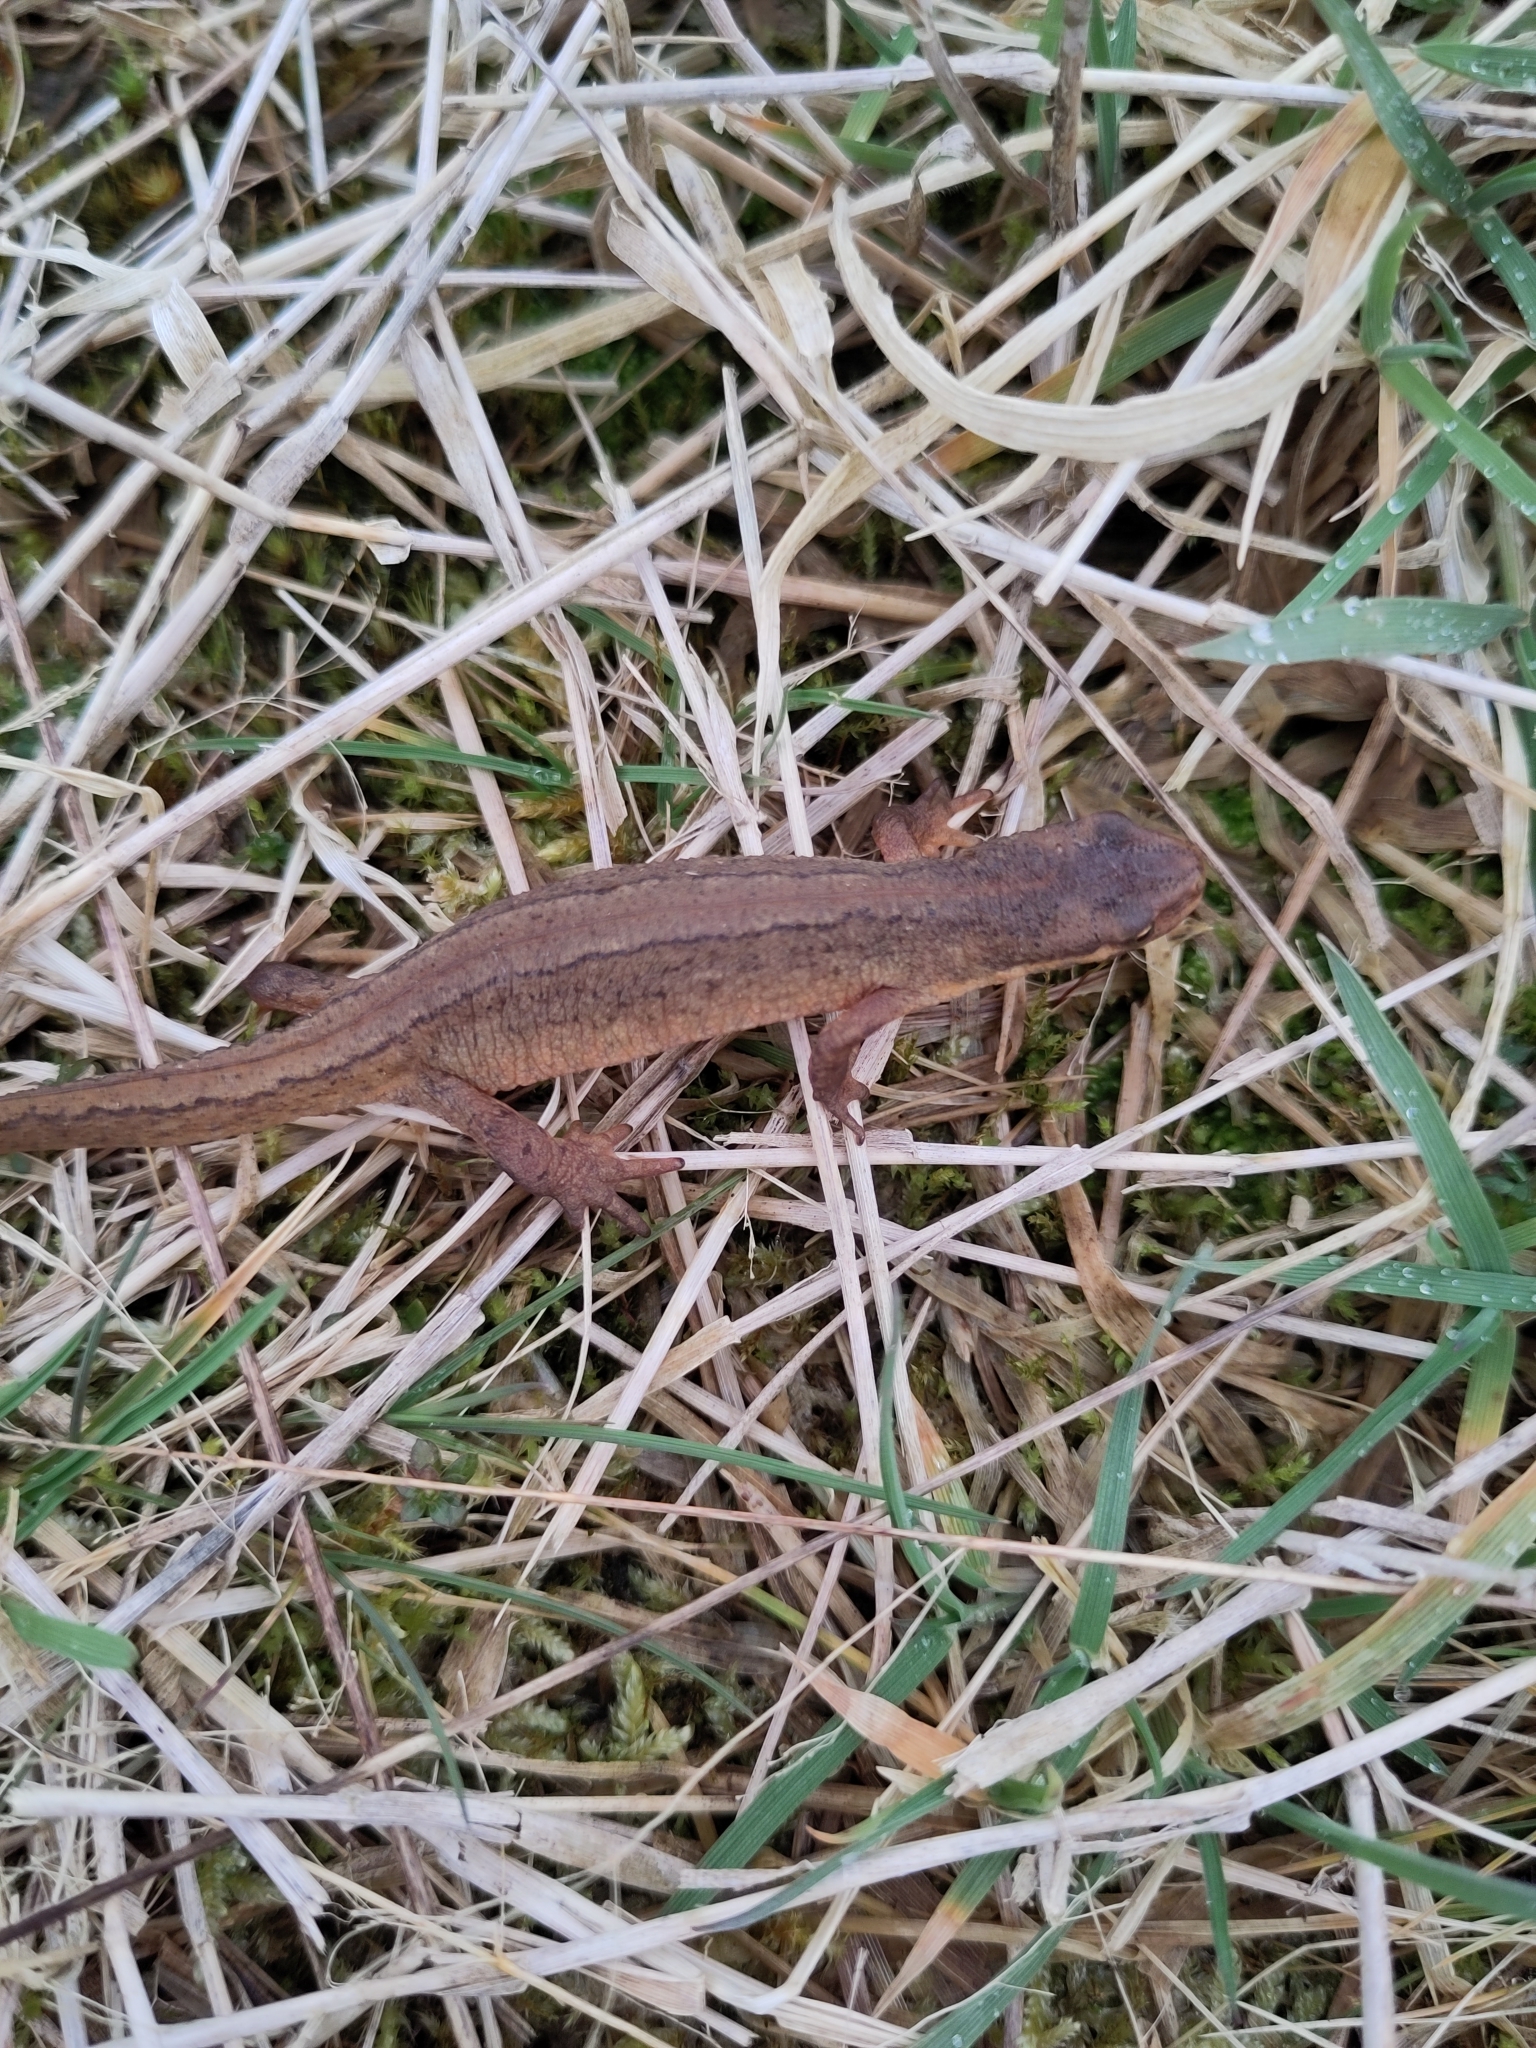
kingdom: Animalia
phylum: Chordata
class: Amphibia
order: Caudata
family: Salamandridae
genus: Lissotriton
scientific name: Lissotriton vulgaris
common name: Smooth newt
